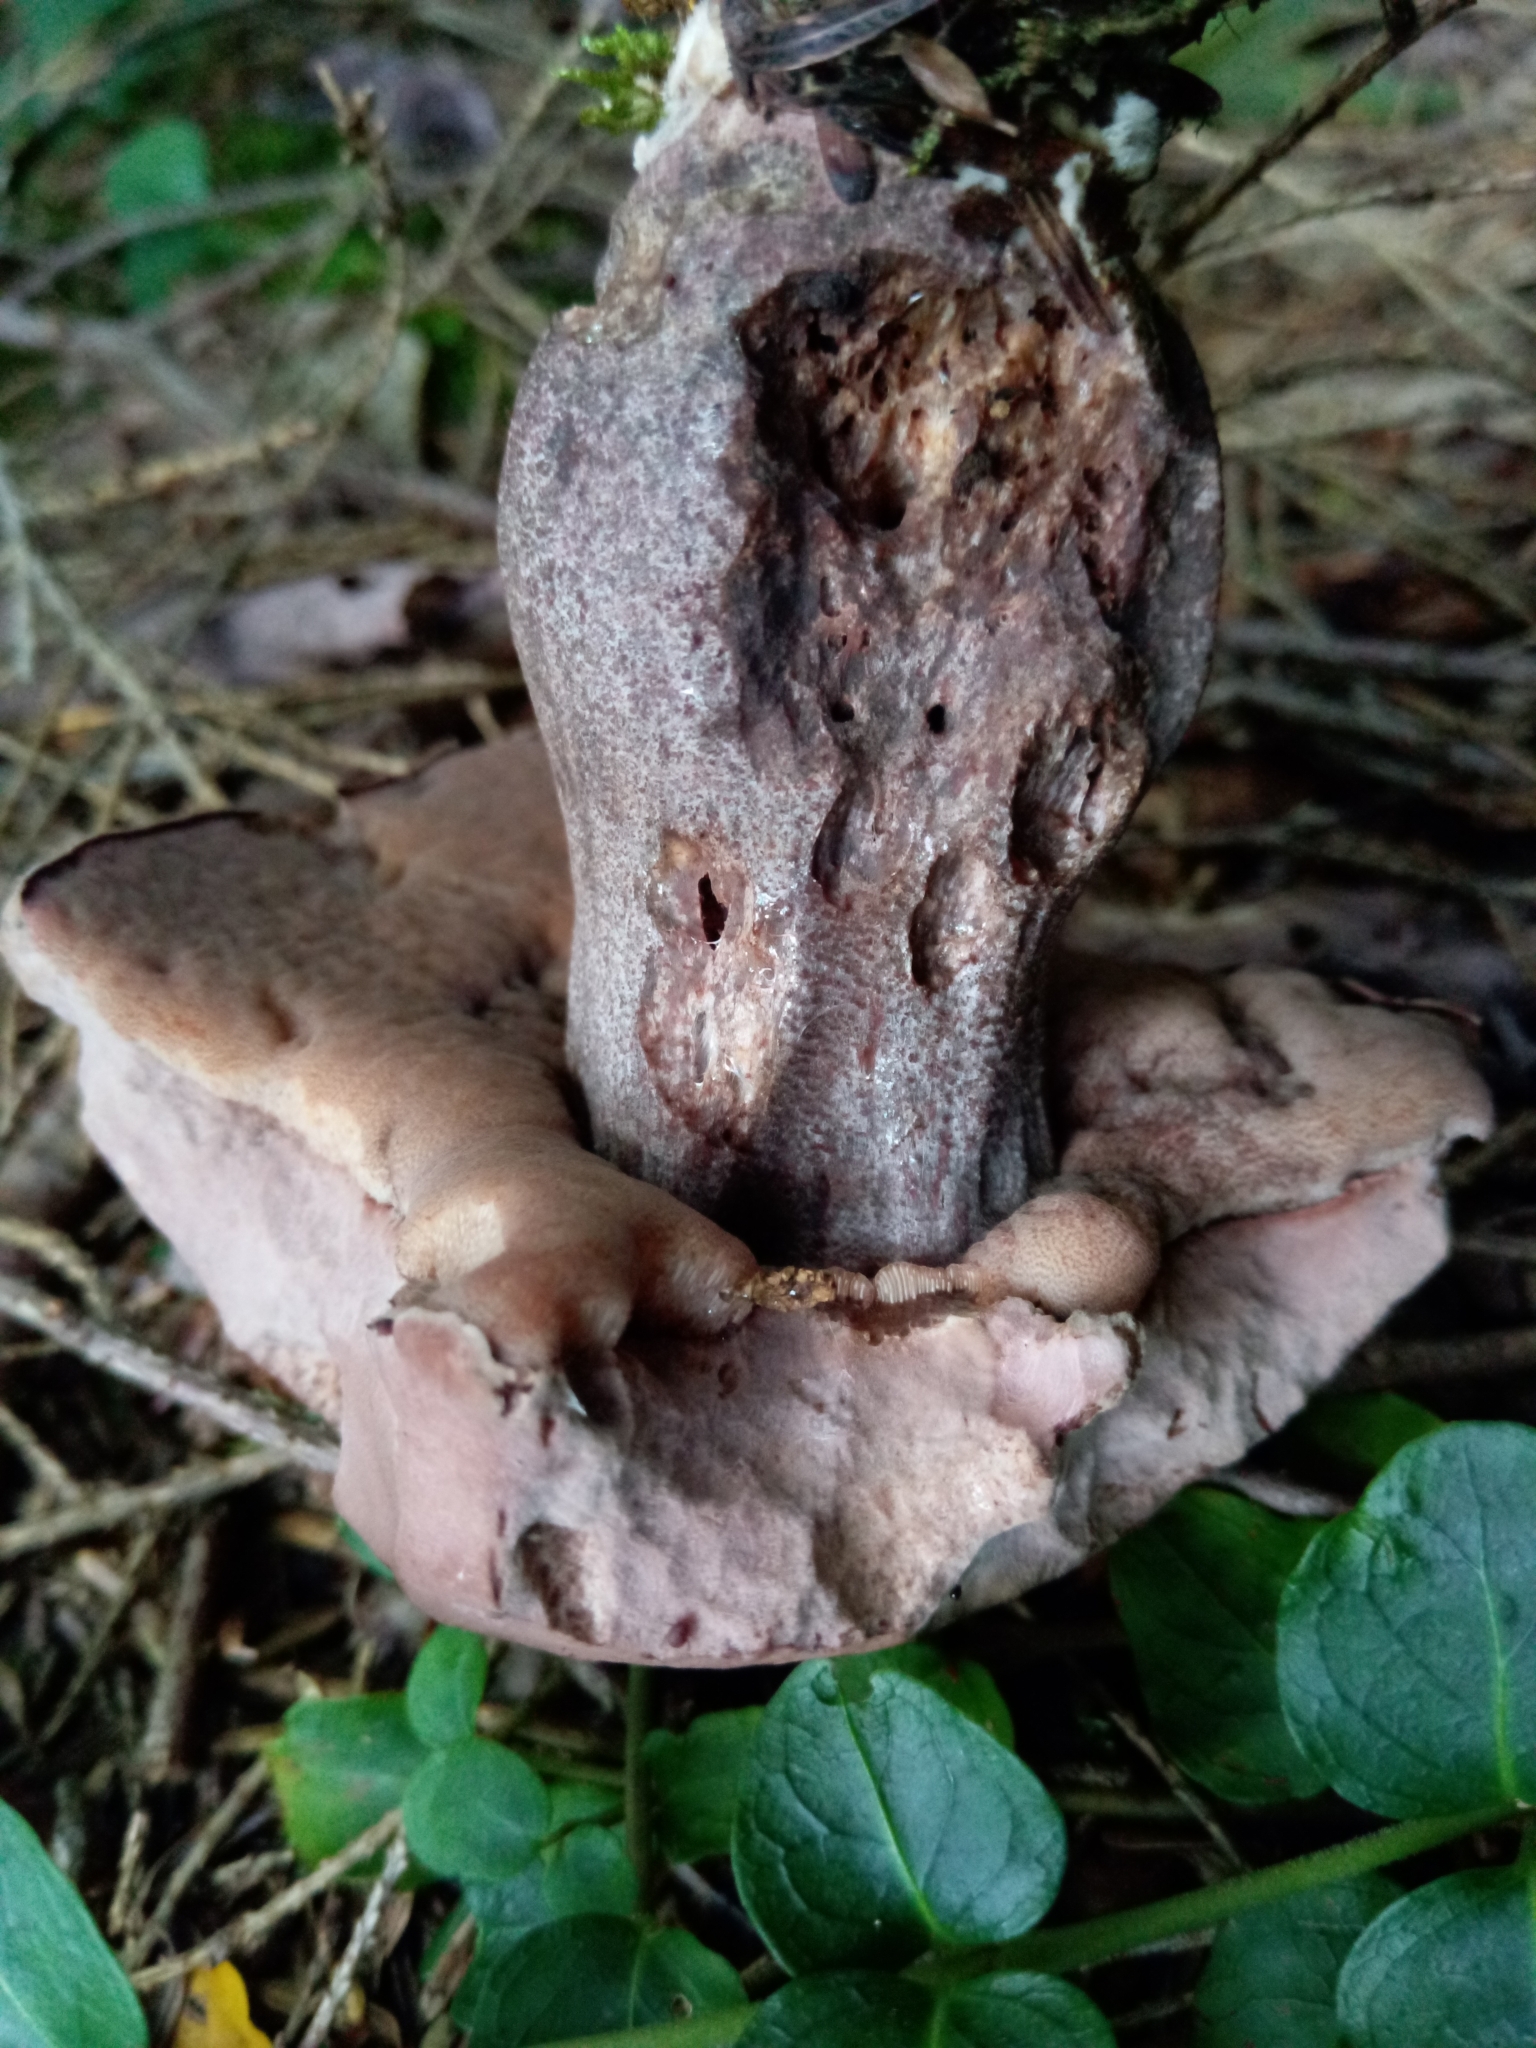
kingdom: Fungi
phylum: Basidiomycota
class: Agaricomycetes
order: Boletales
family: Boletaceae
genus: Sutorius
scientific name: Sutorius eximius
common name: Lilac-brown bolete
